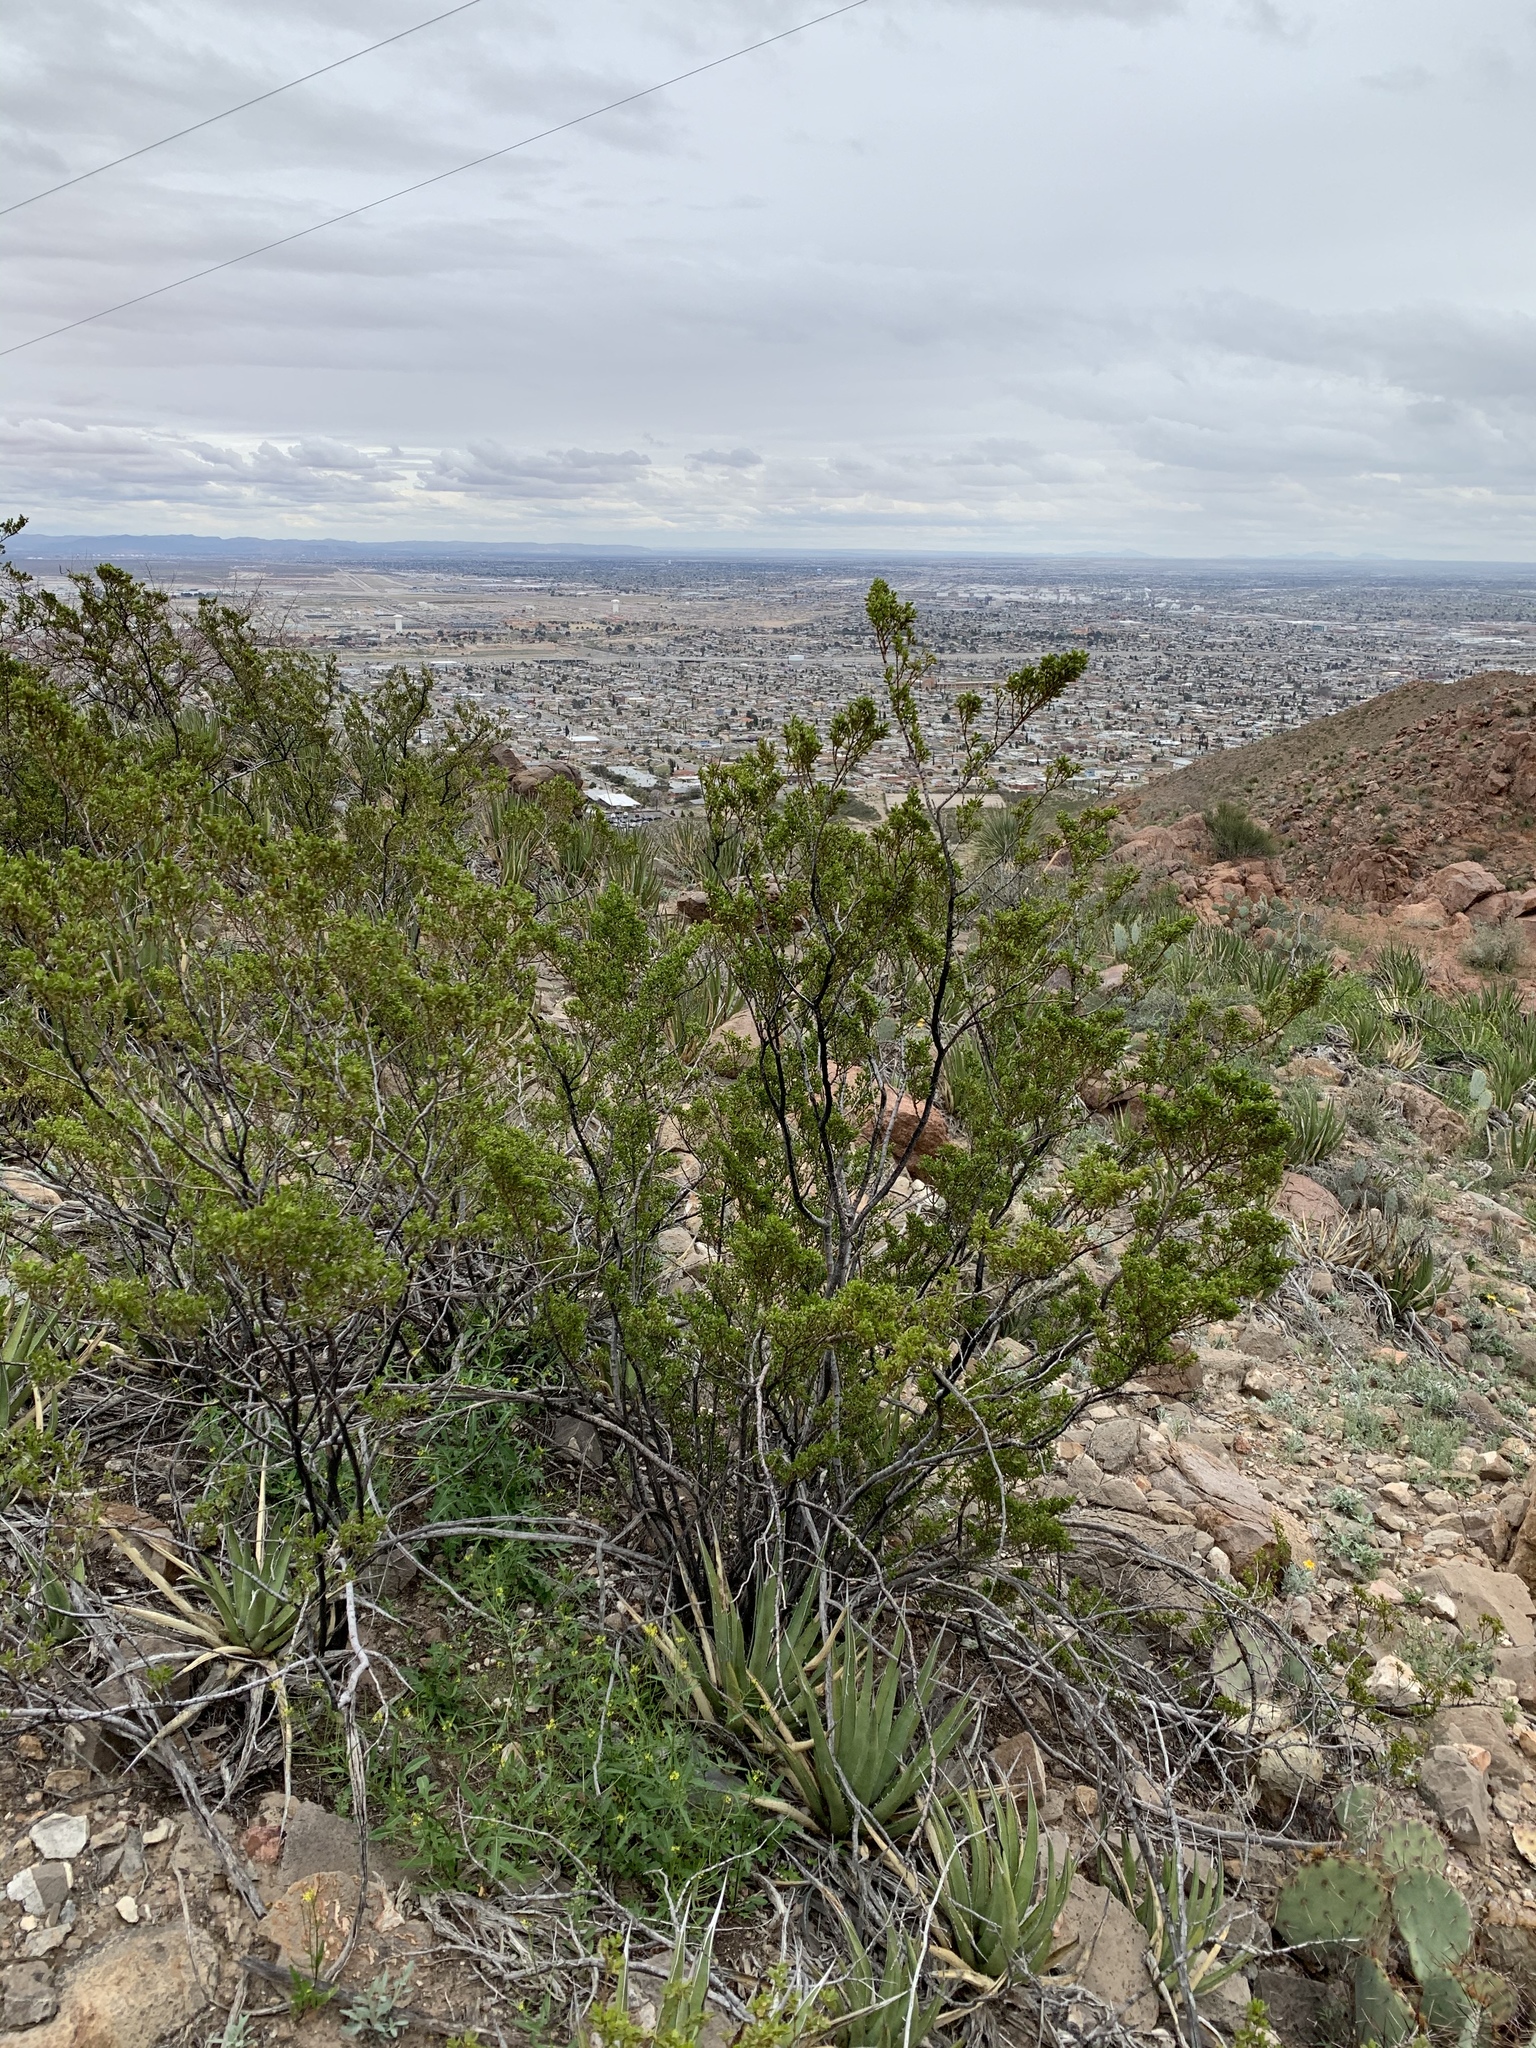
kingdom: Plantae
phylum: Tracheophyta
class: Magnoliopsida
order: Zygophyllales
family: Zygophyllaceae
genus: Larrea
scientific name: Larrea tridentata
